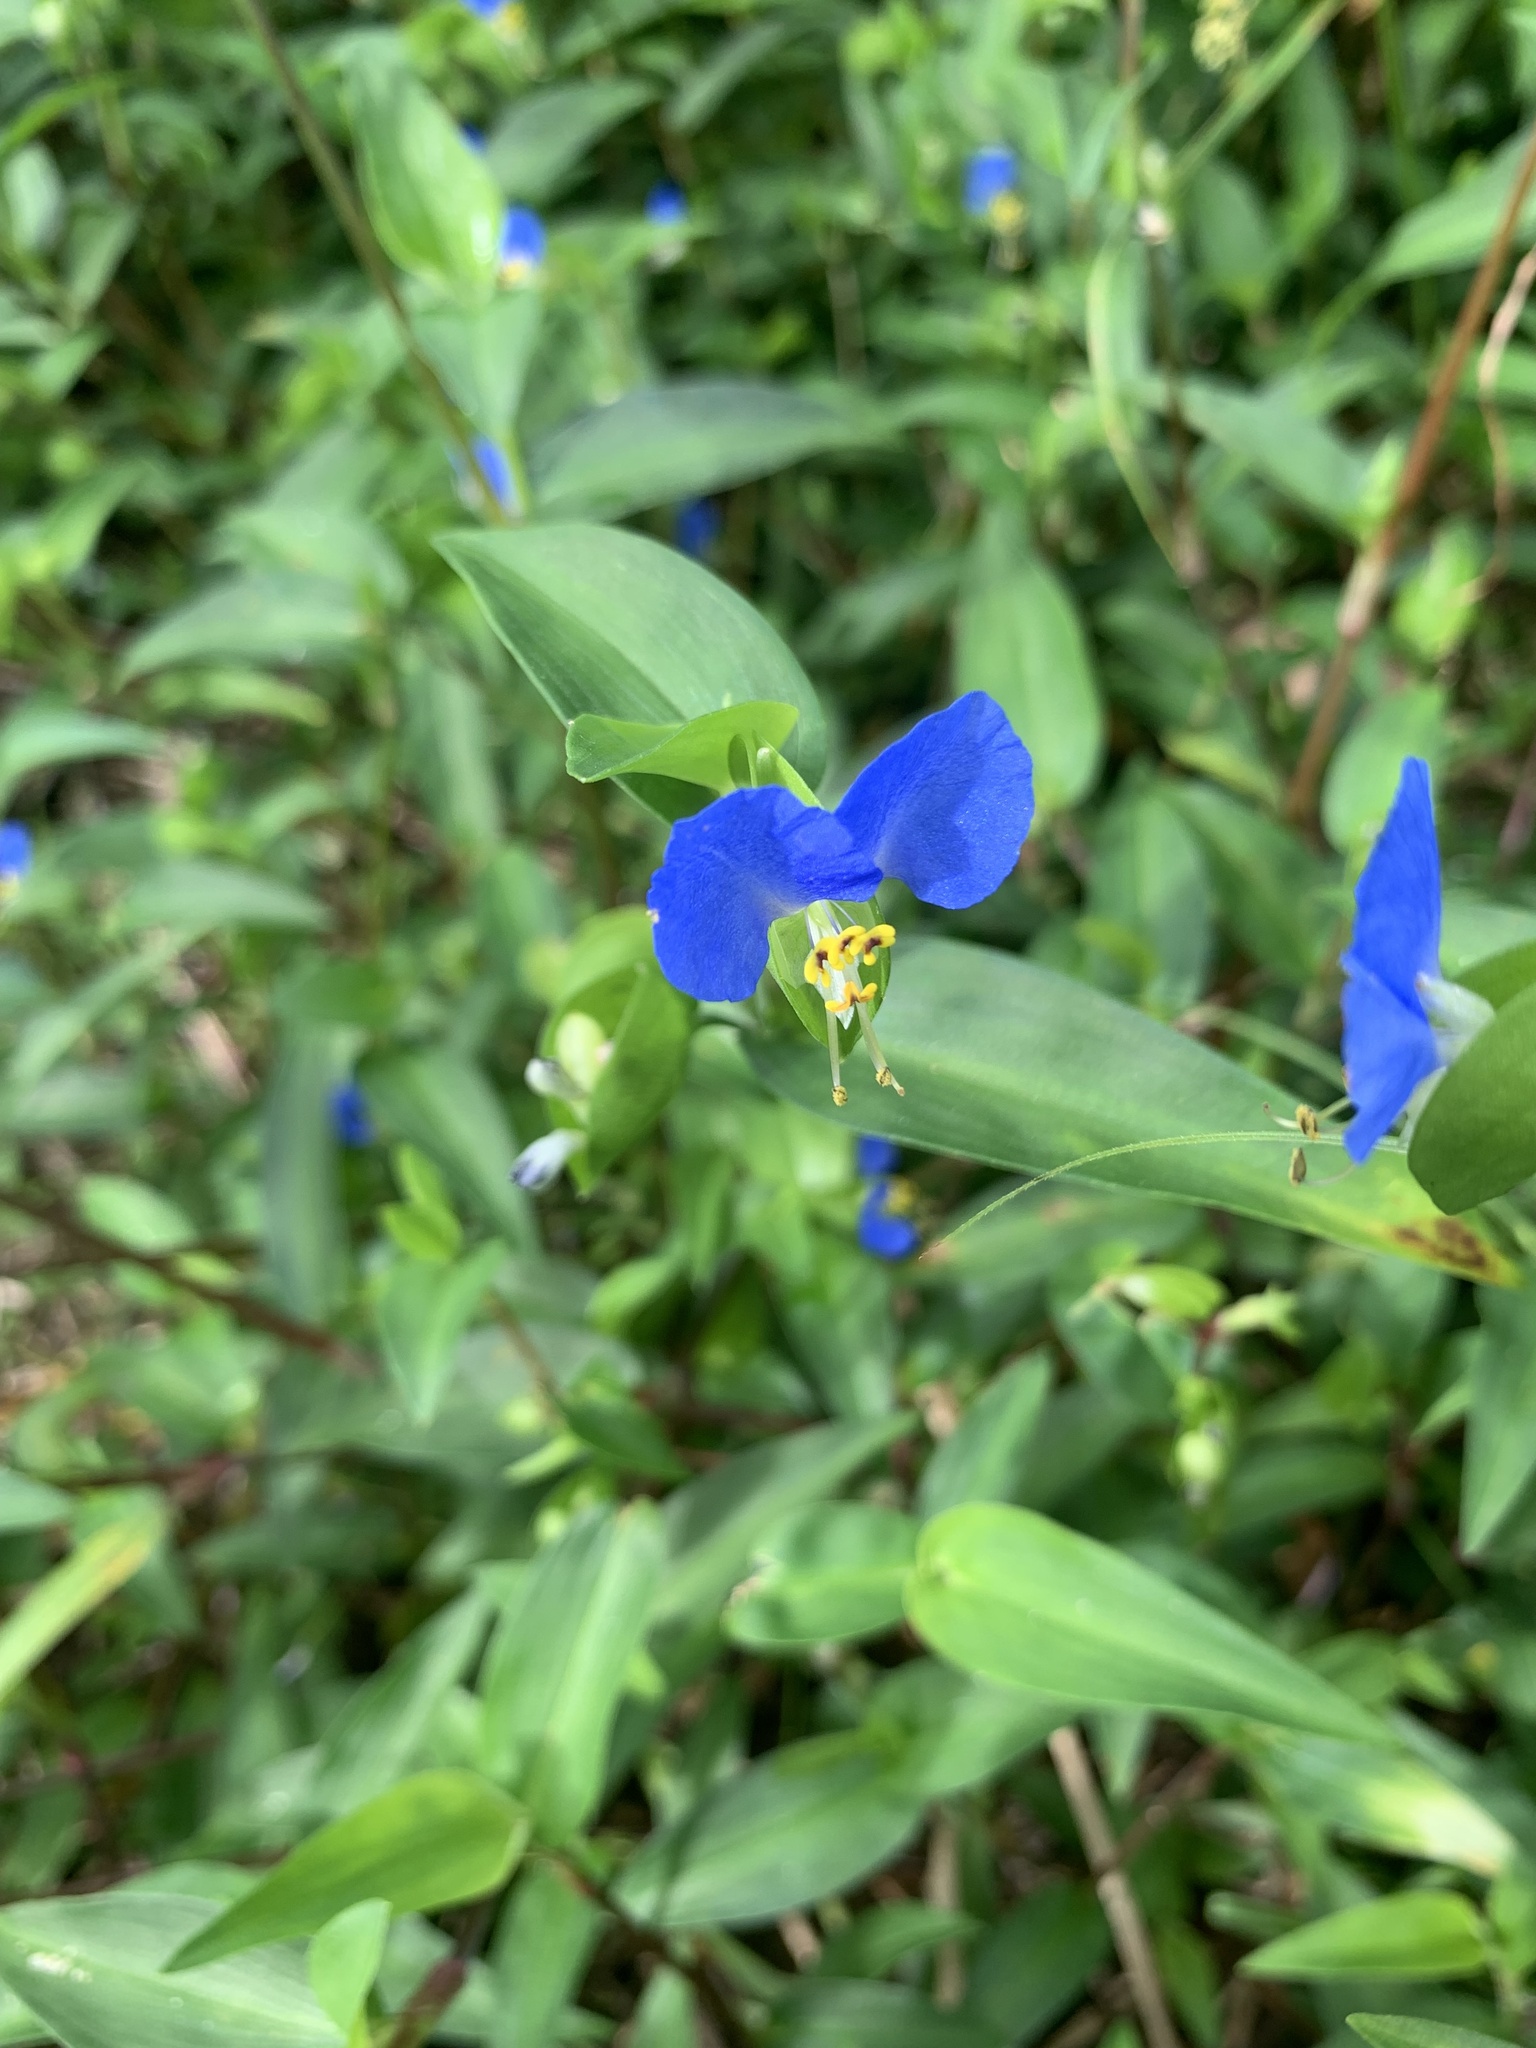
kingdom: Plantae
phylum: Tracheophyta
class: Liliopsida
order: Commelinales
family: Commelinaceae
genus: Commelina
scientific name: Commelina communis
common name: Asiatic dayflower
